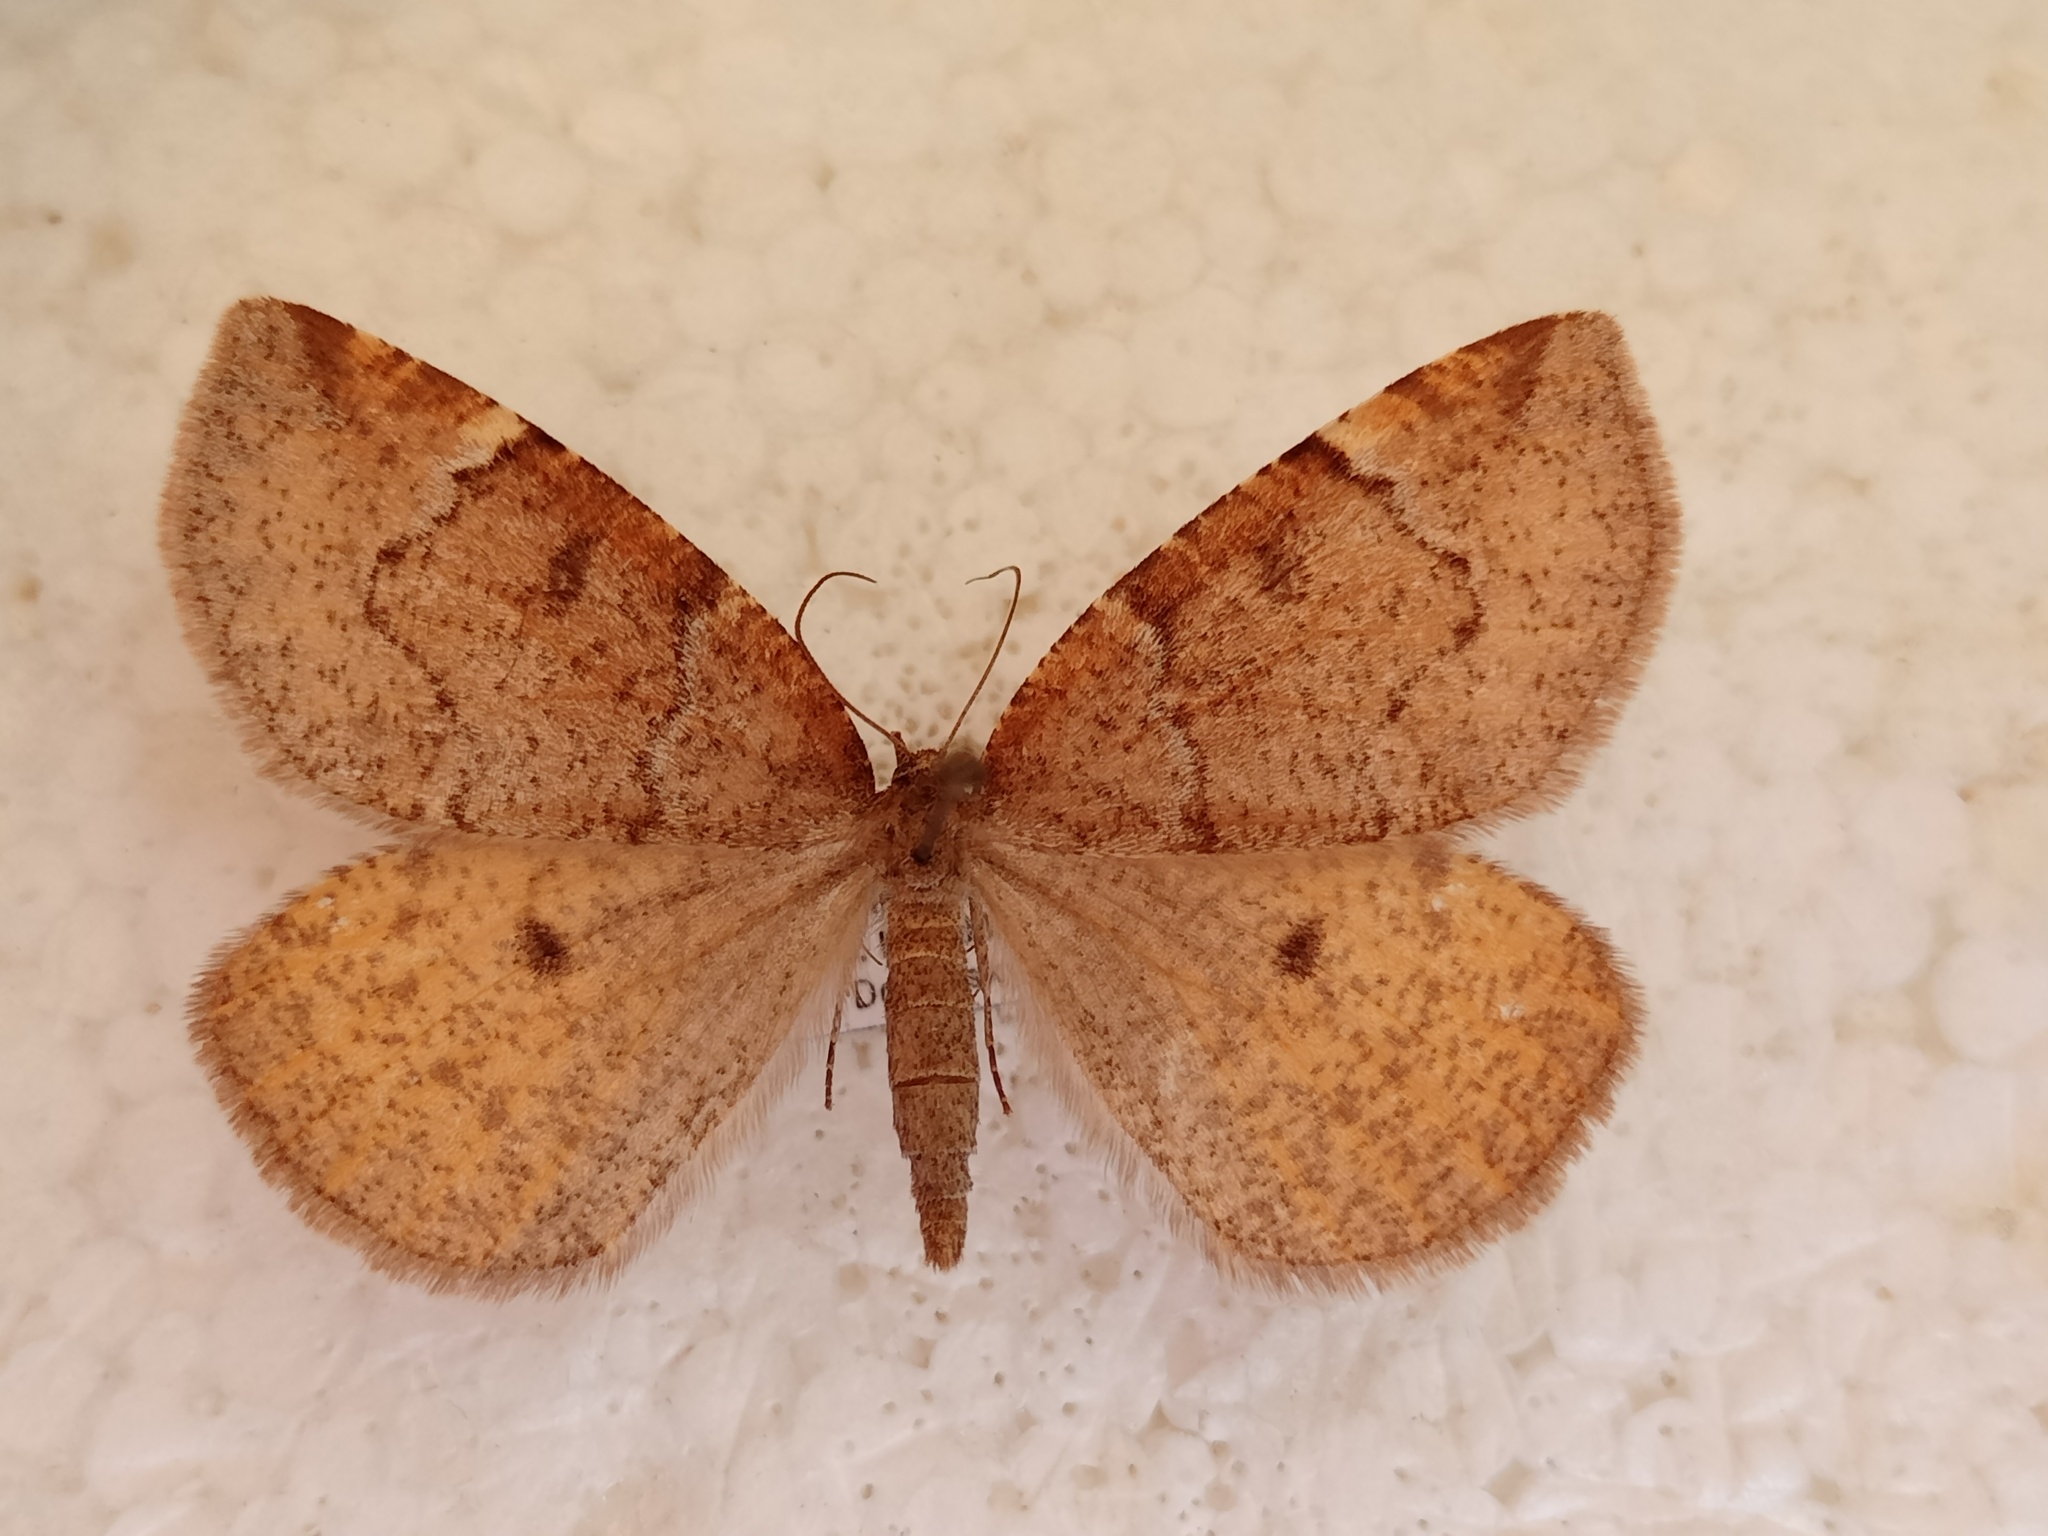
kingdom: Animalia
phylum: Arthropoda
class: Insecta
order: Lepidoptera
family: Geometridae
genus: Epirranthis
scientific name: Epirranthis diversata
